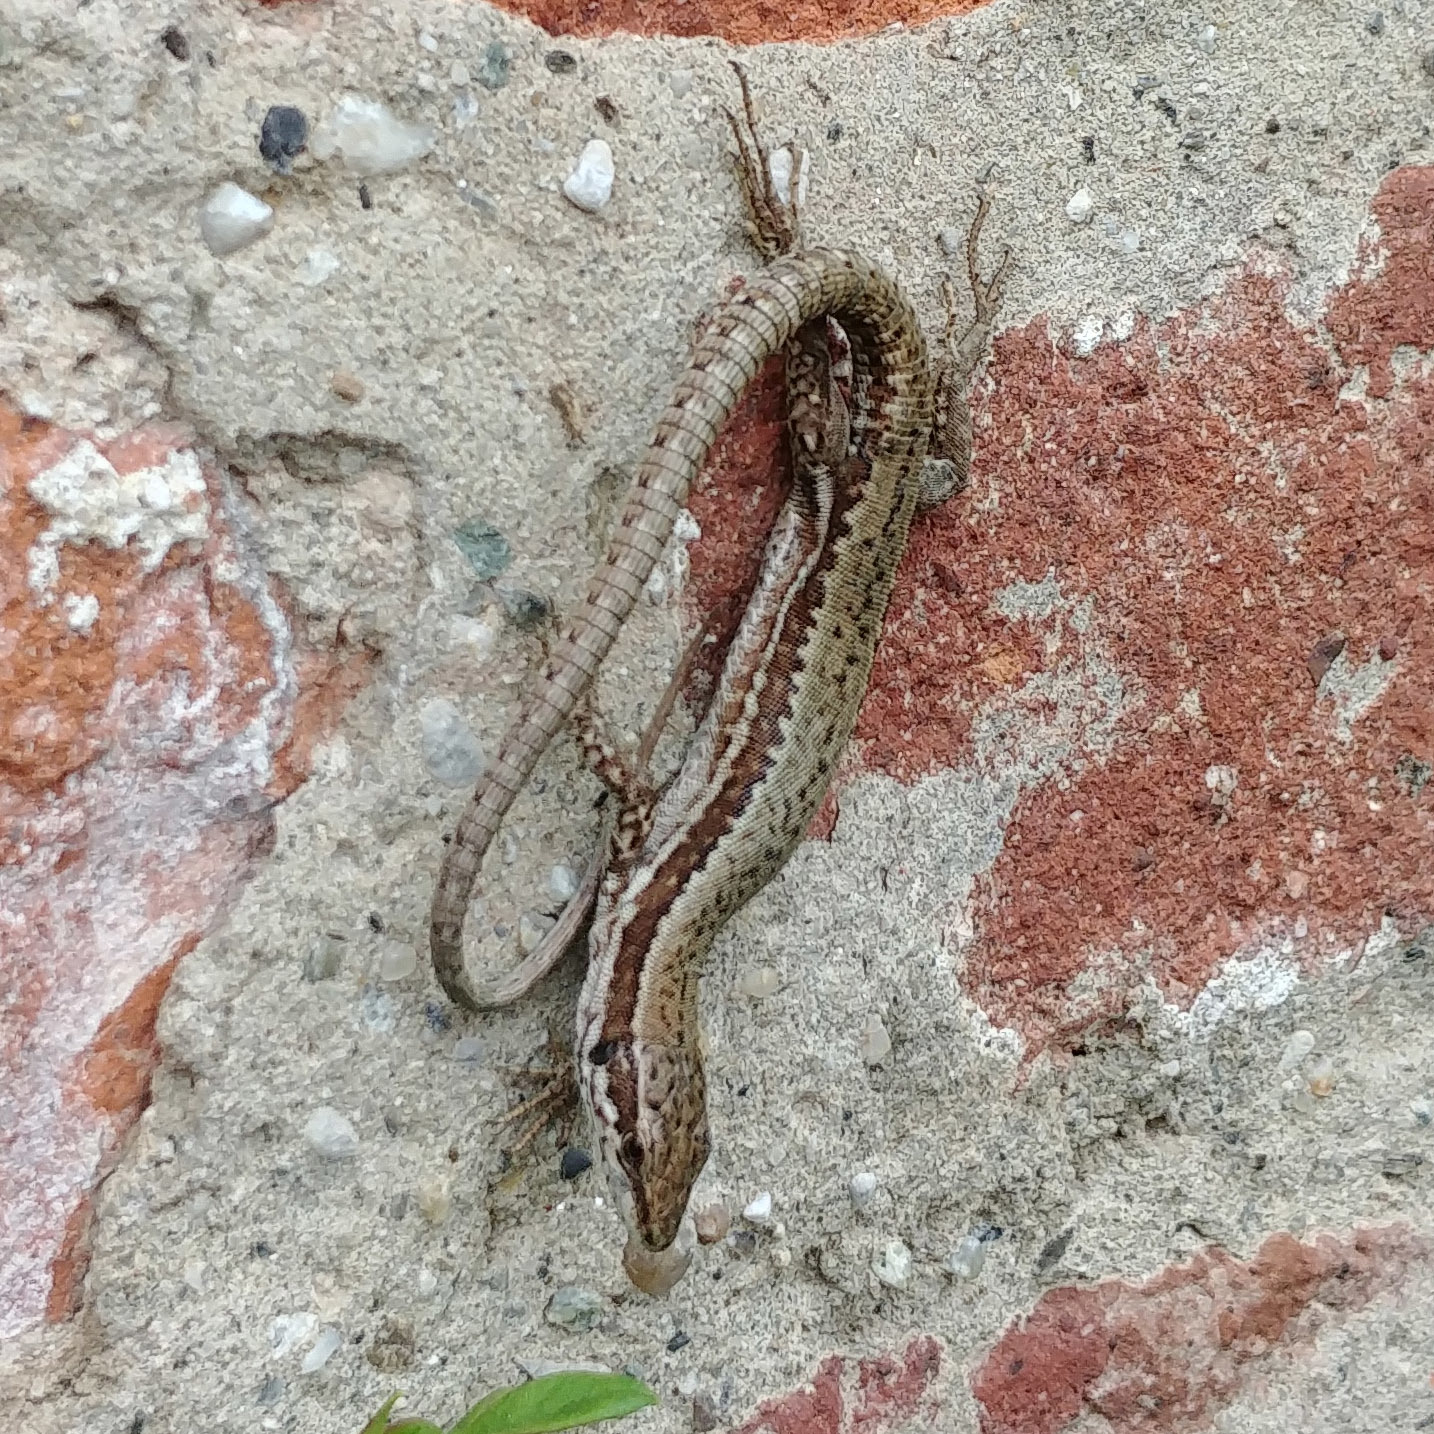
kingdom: Animalia
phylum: Chordata
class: Squamata
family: Lacertidae
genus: Podarcis
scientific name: Podarcis muralis
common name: Common wall lizard
